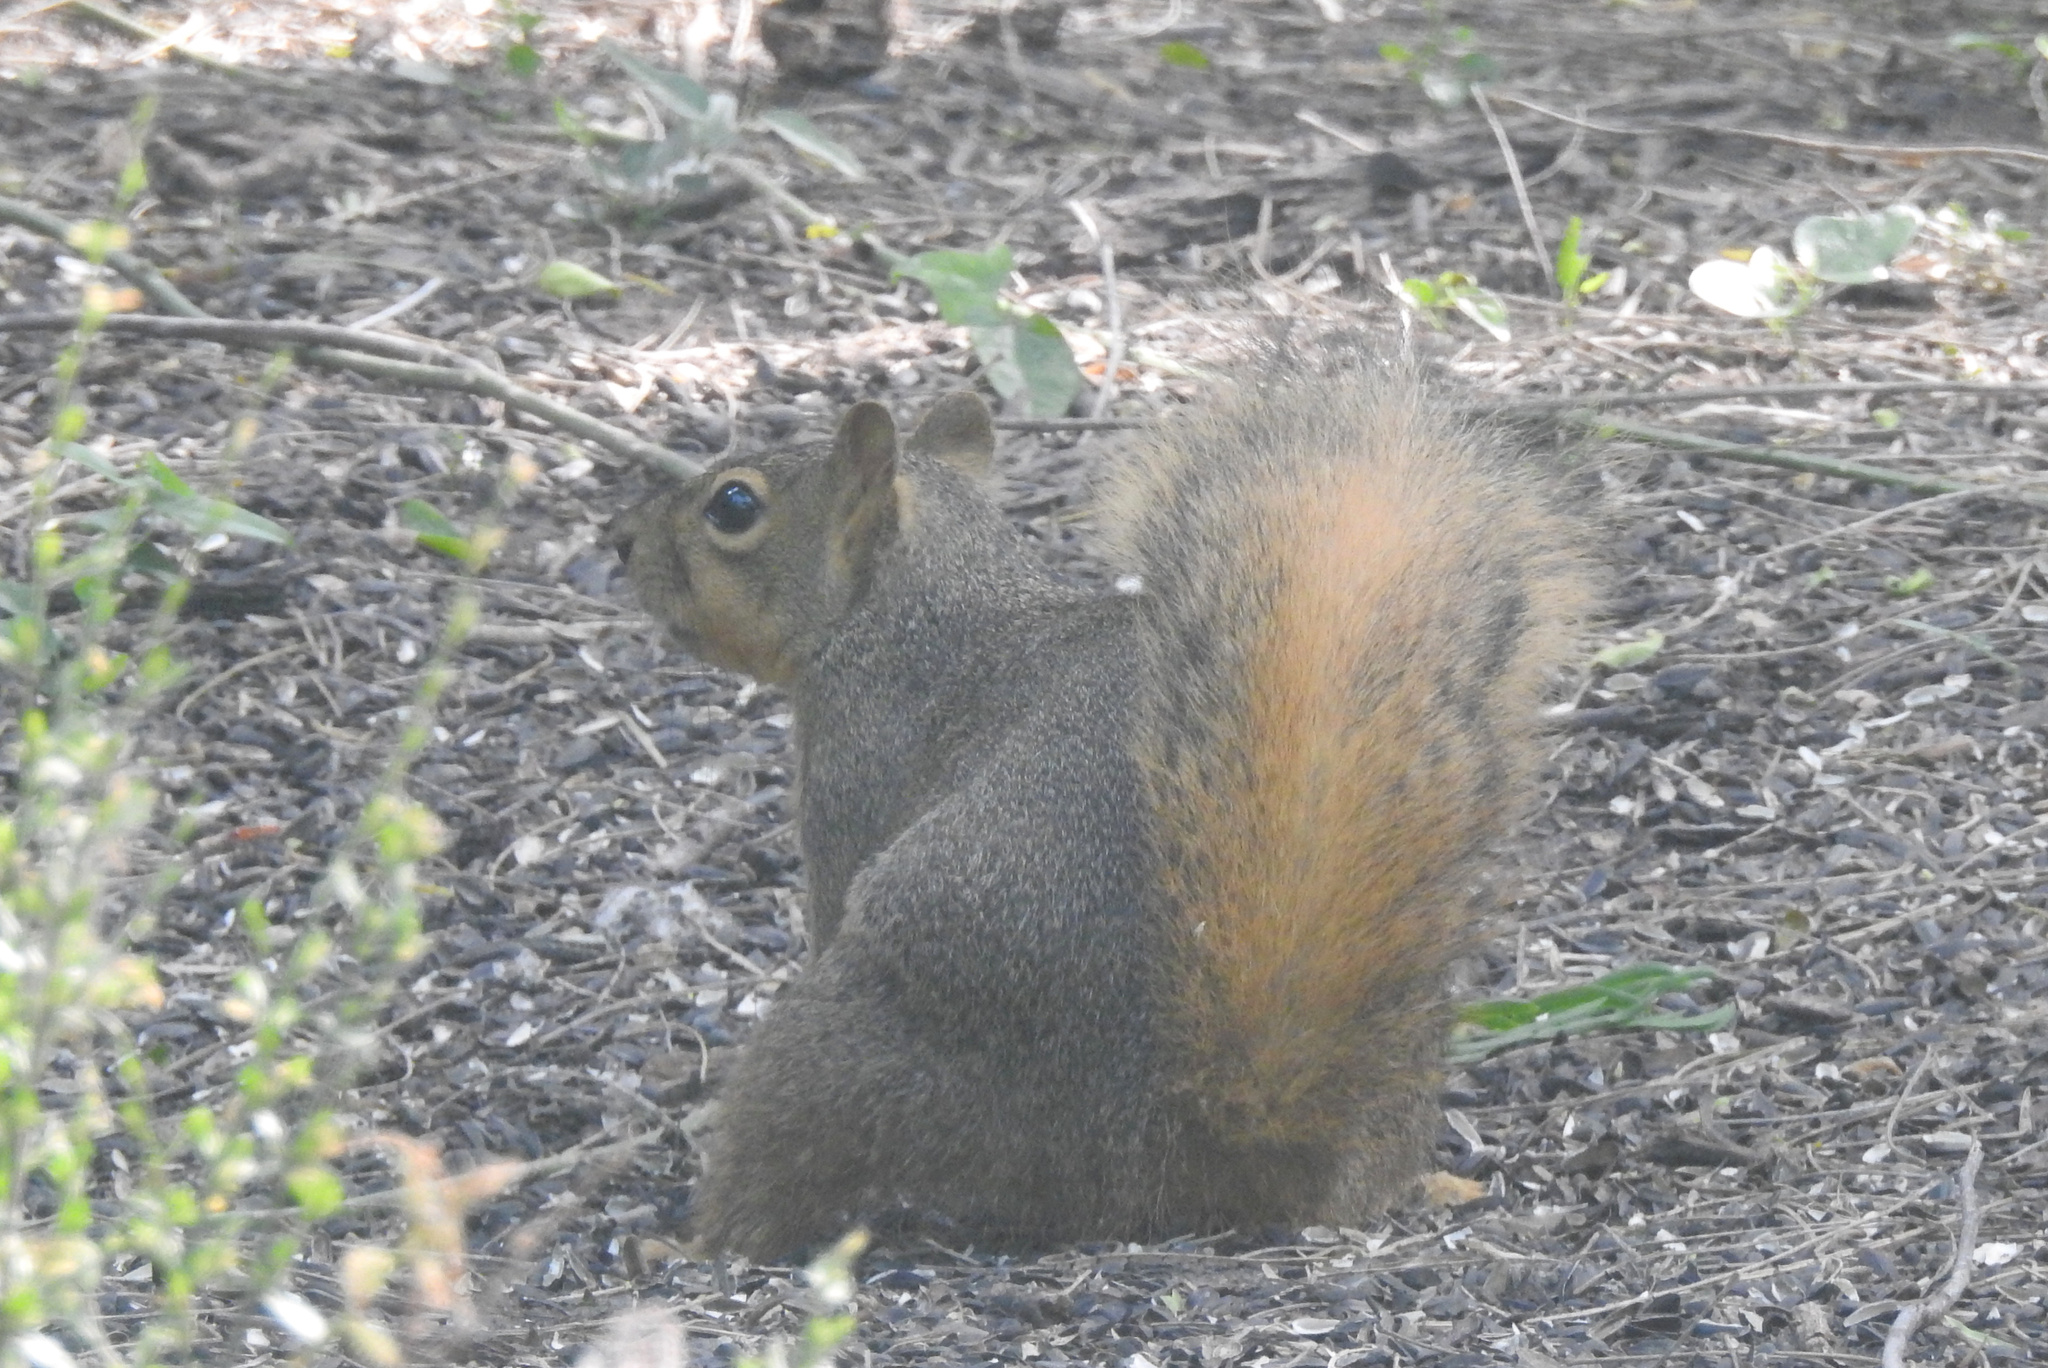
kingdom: Animalia
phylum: Chordata
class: Mammalia
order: Rodentia
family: Sciuridae
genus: Sciurus
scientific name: Sciurus niger
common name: Fox squirrel
